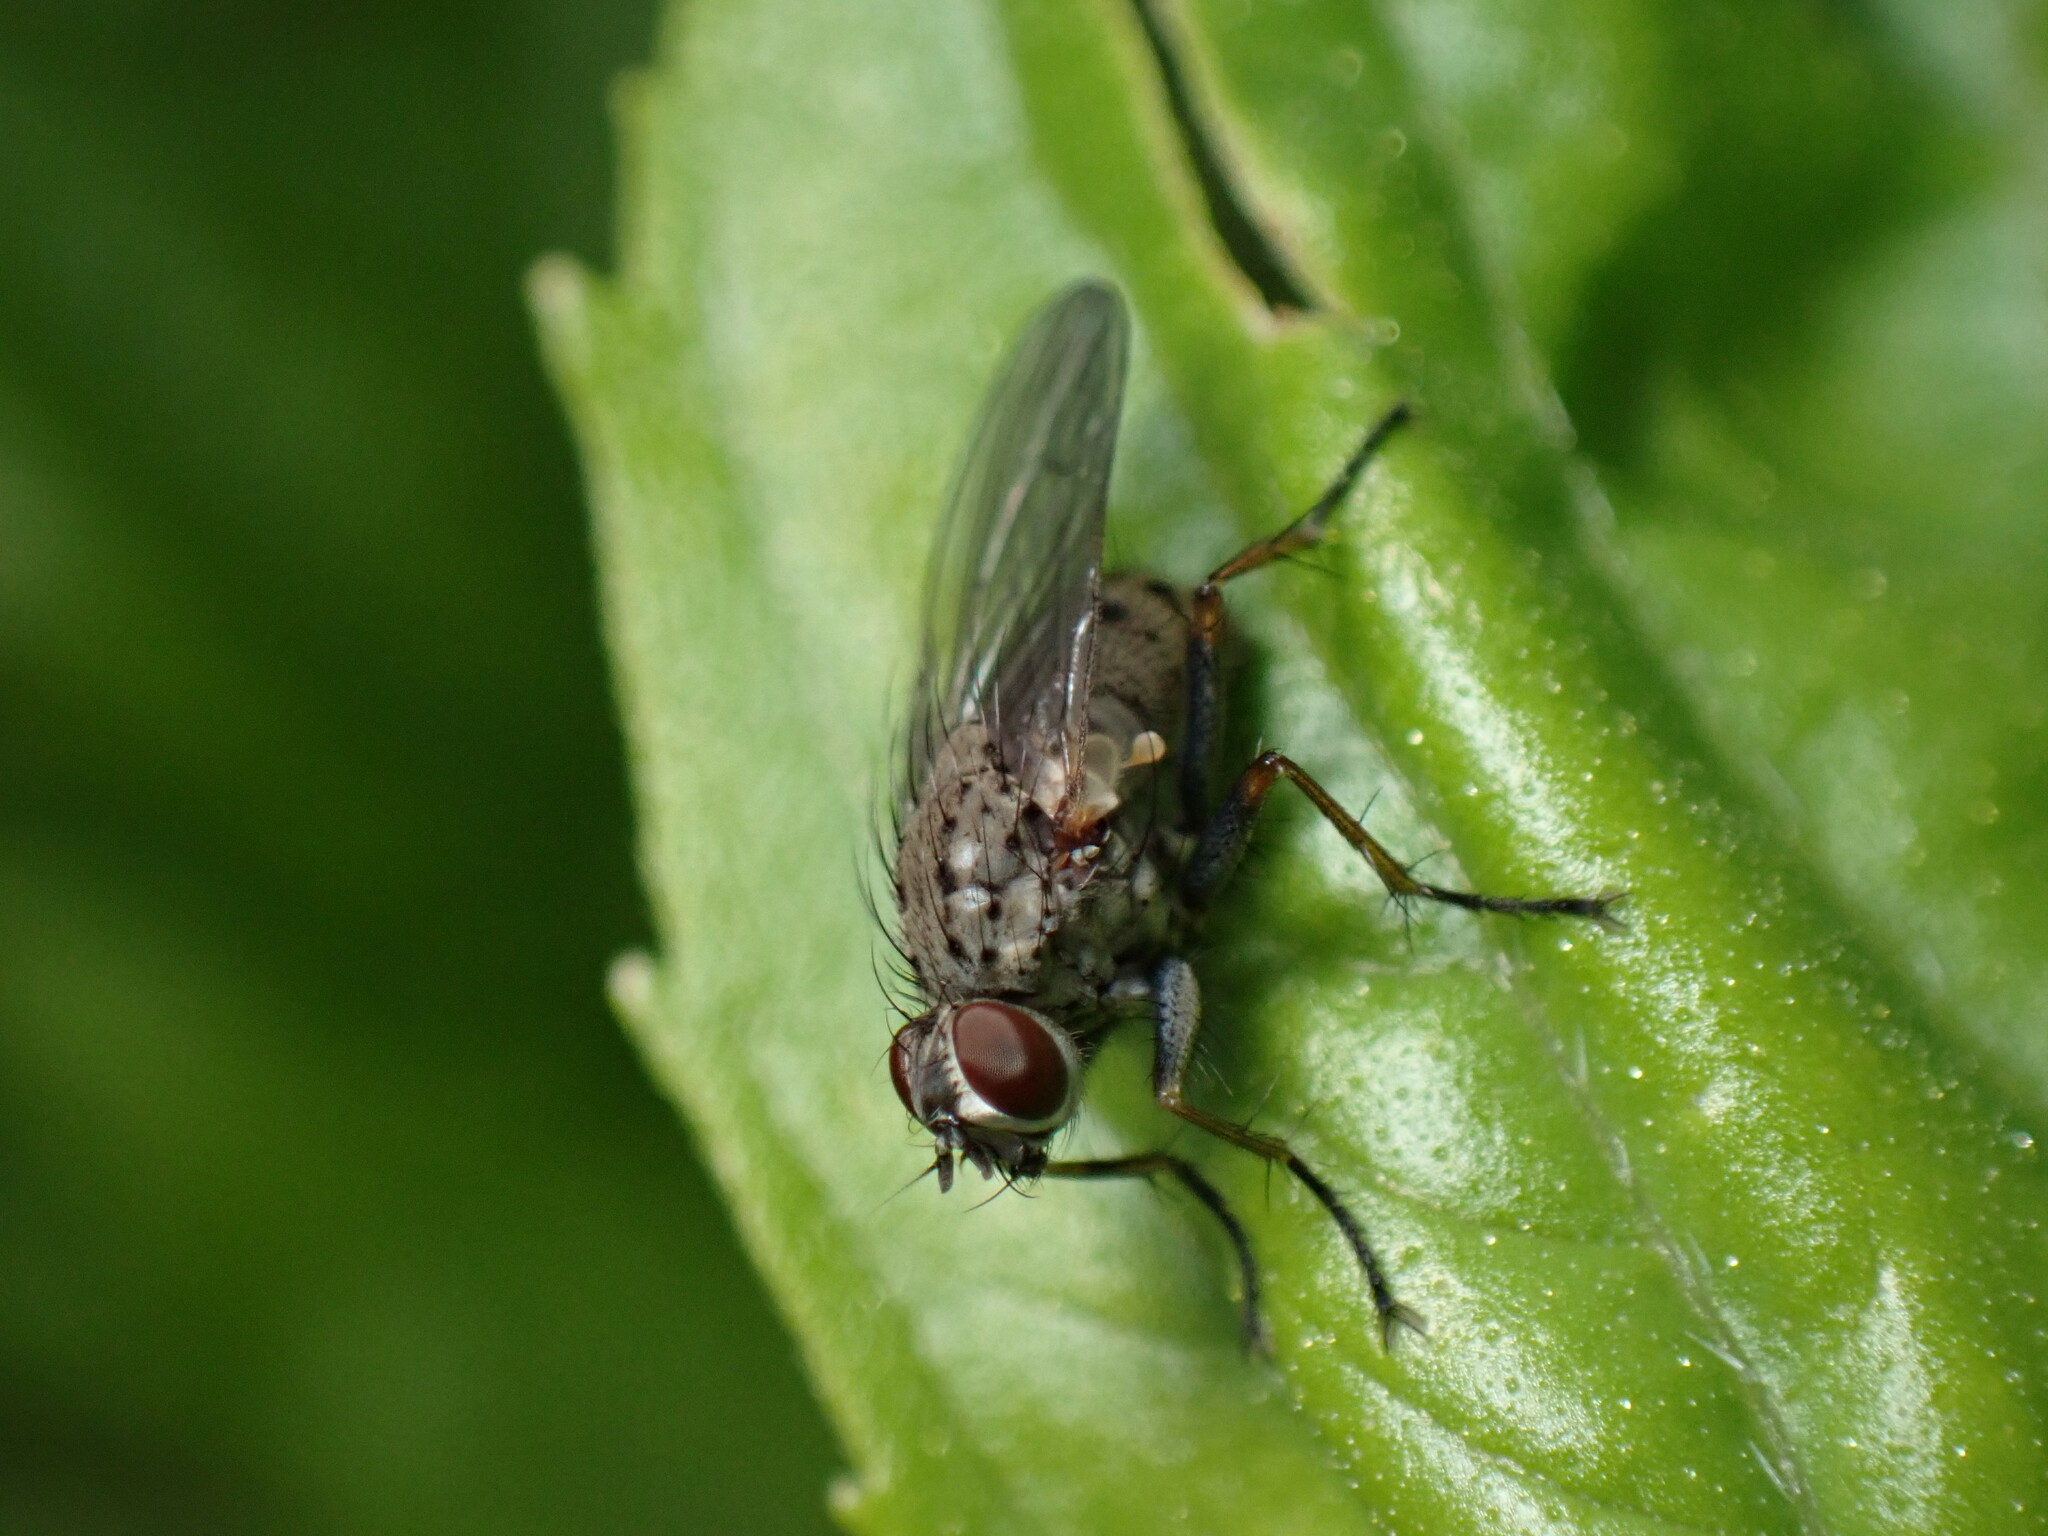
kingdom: Animalia
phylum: Arthropoda
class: Insecta
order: Diptera
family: Muscidae
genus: Coenosia
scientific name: Coenosia tigrina
